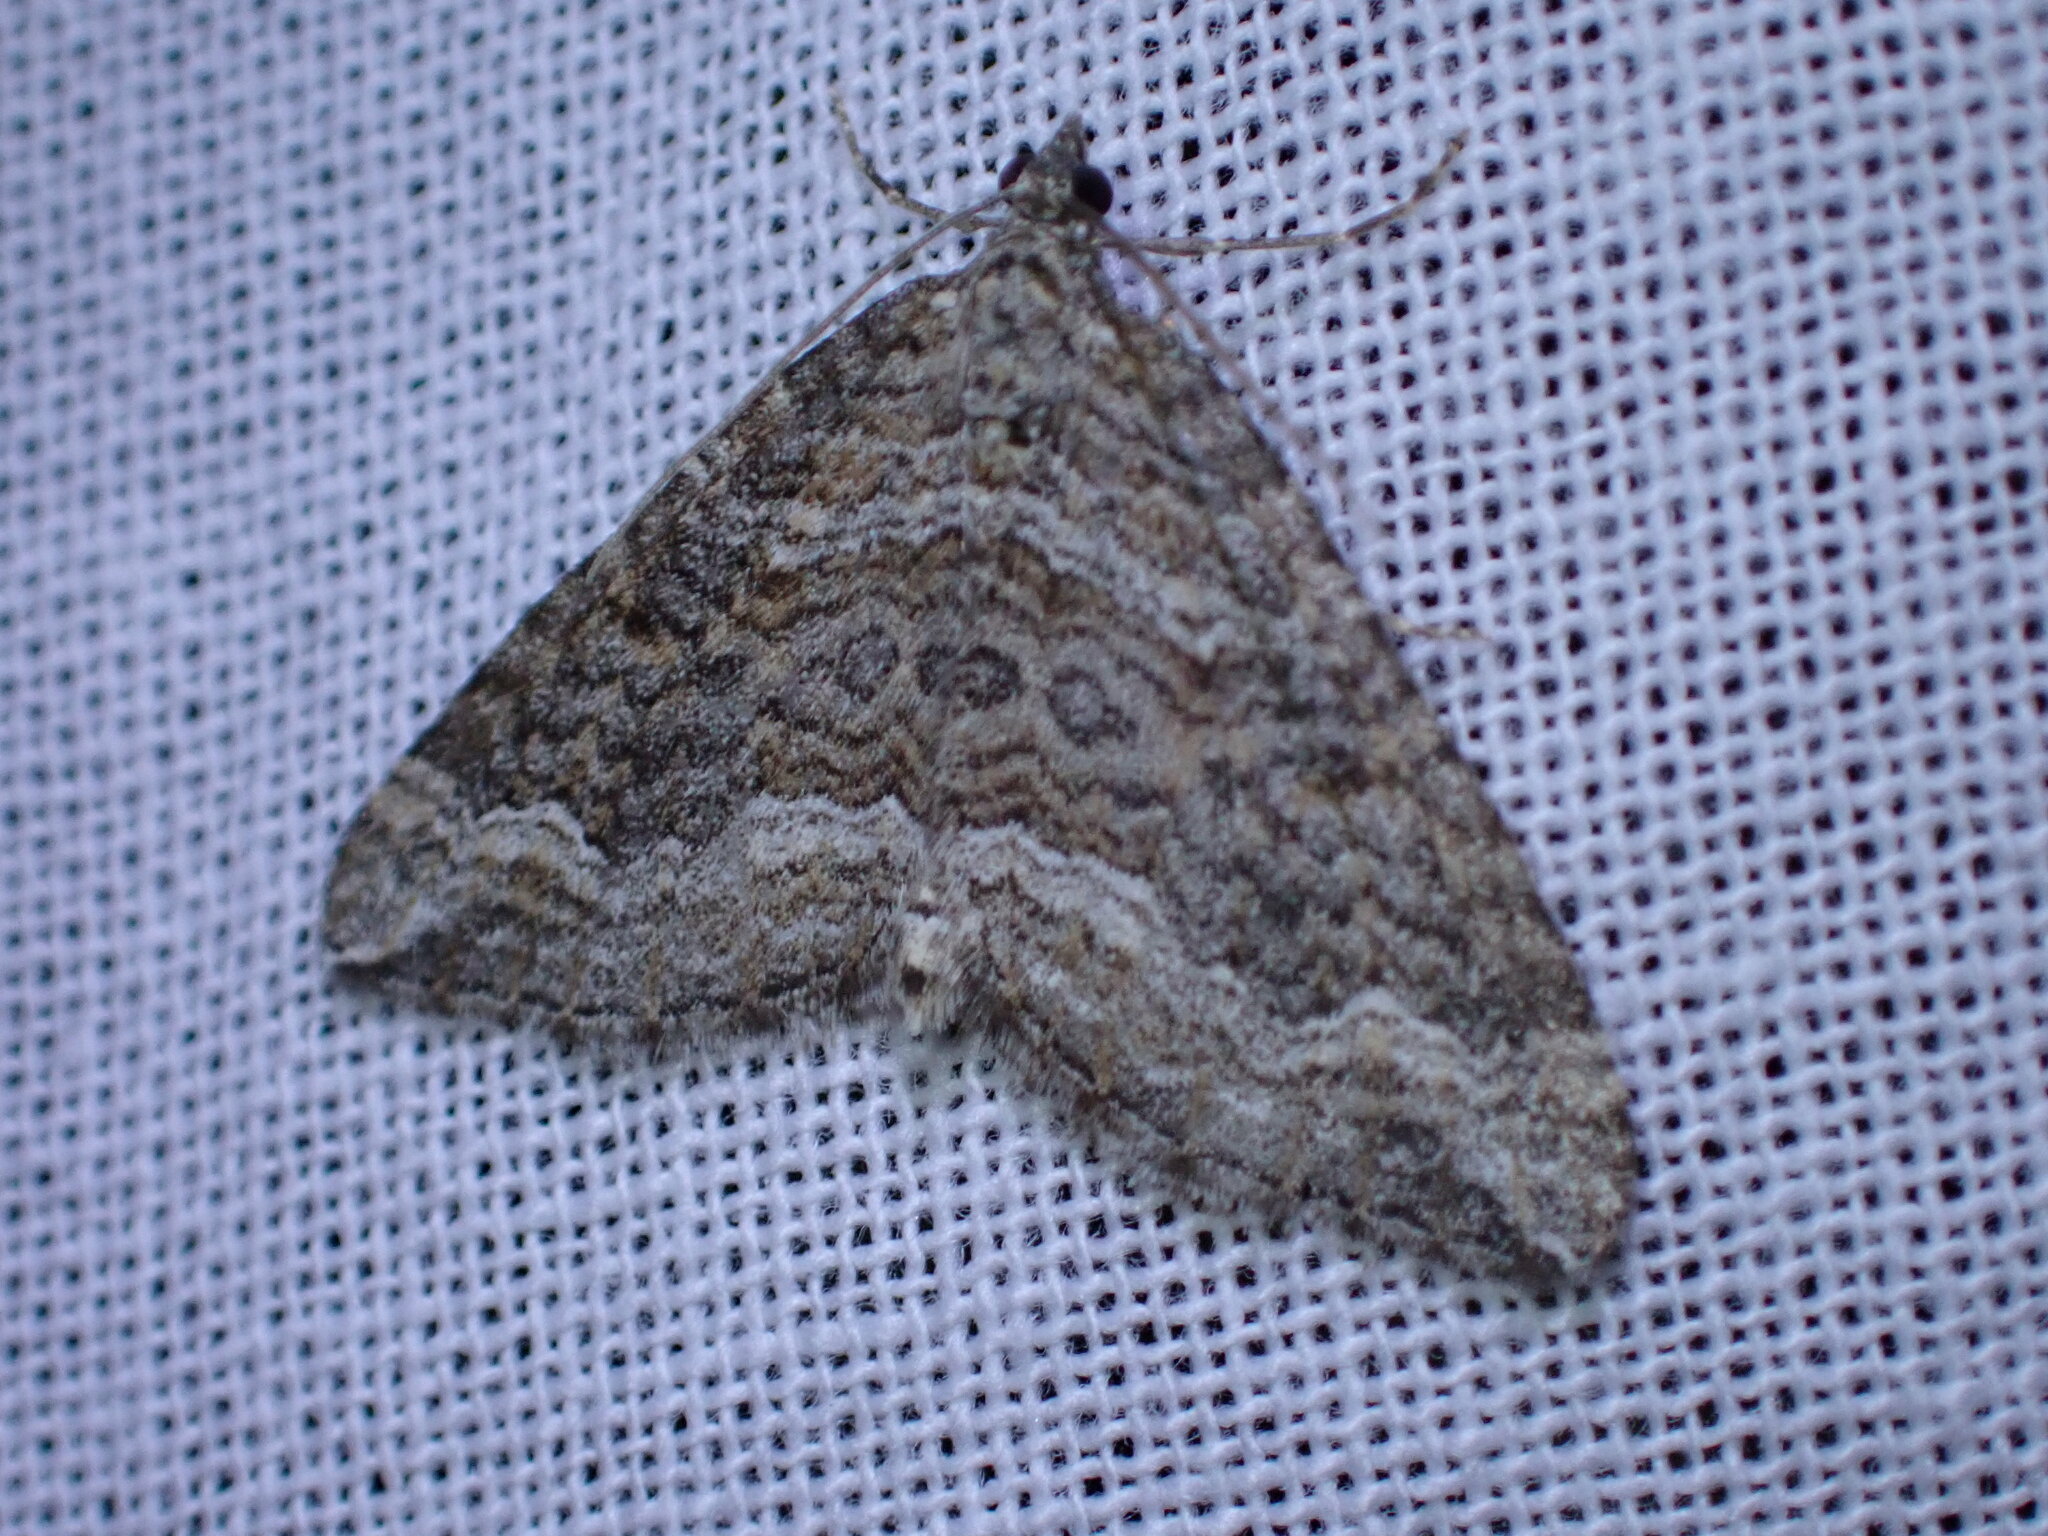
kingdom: Animalia
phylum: Arthropoda
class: Insecta
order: Lepidoptera
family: Geometridae
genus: Perizoma
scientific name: Perizoma custodiata
